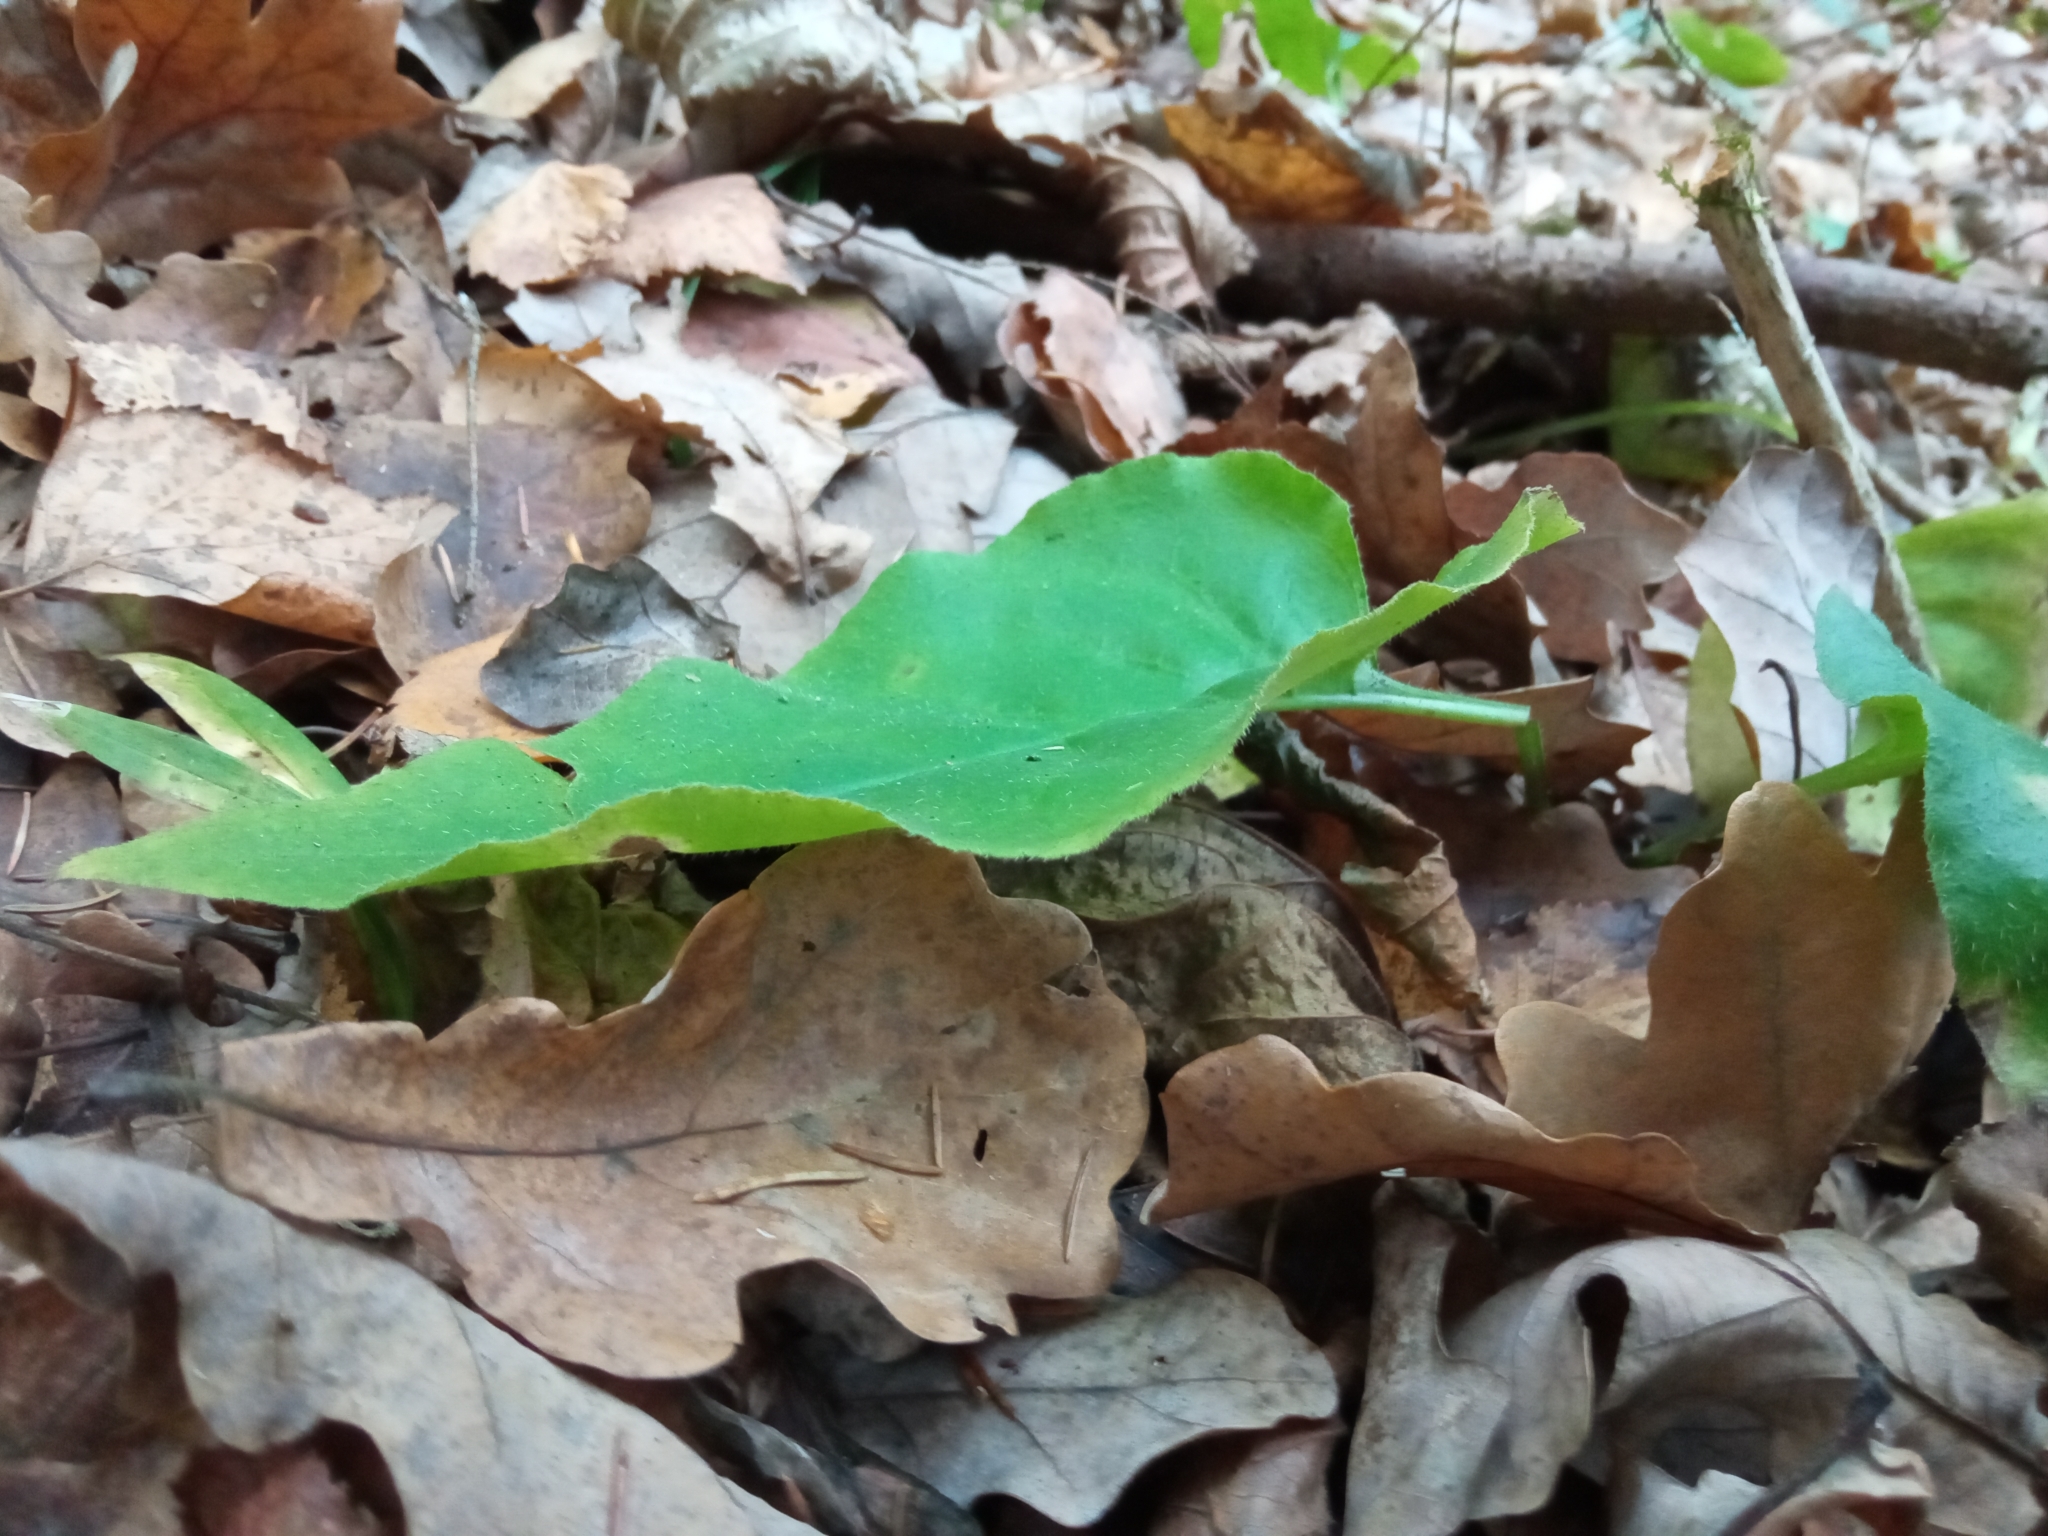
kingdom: Plantae
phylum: Tracheophyta
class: Magnoliopsida
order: Boraginales
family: Boraginaceae
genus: Pulmonaria
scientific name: Pulmonaria obscura
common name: Suffolk lungwort
